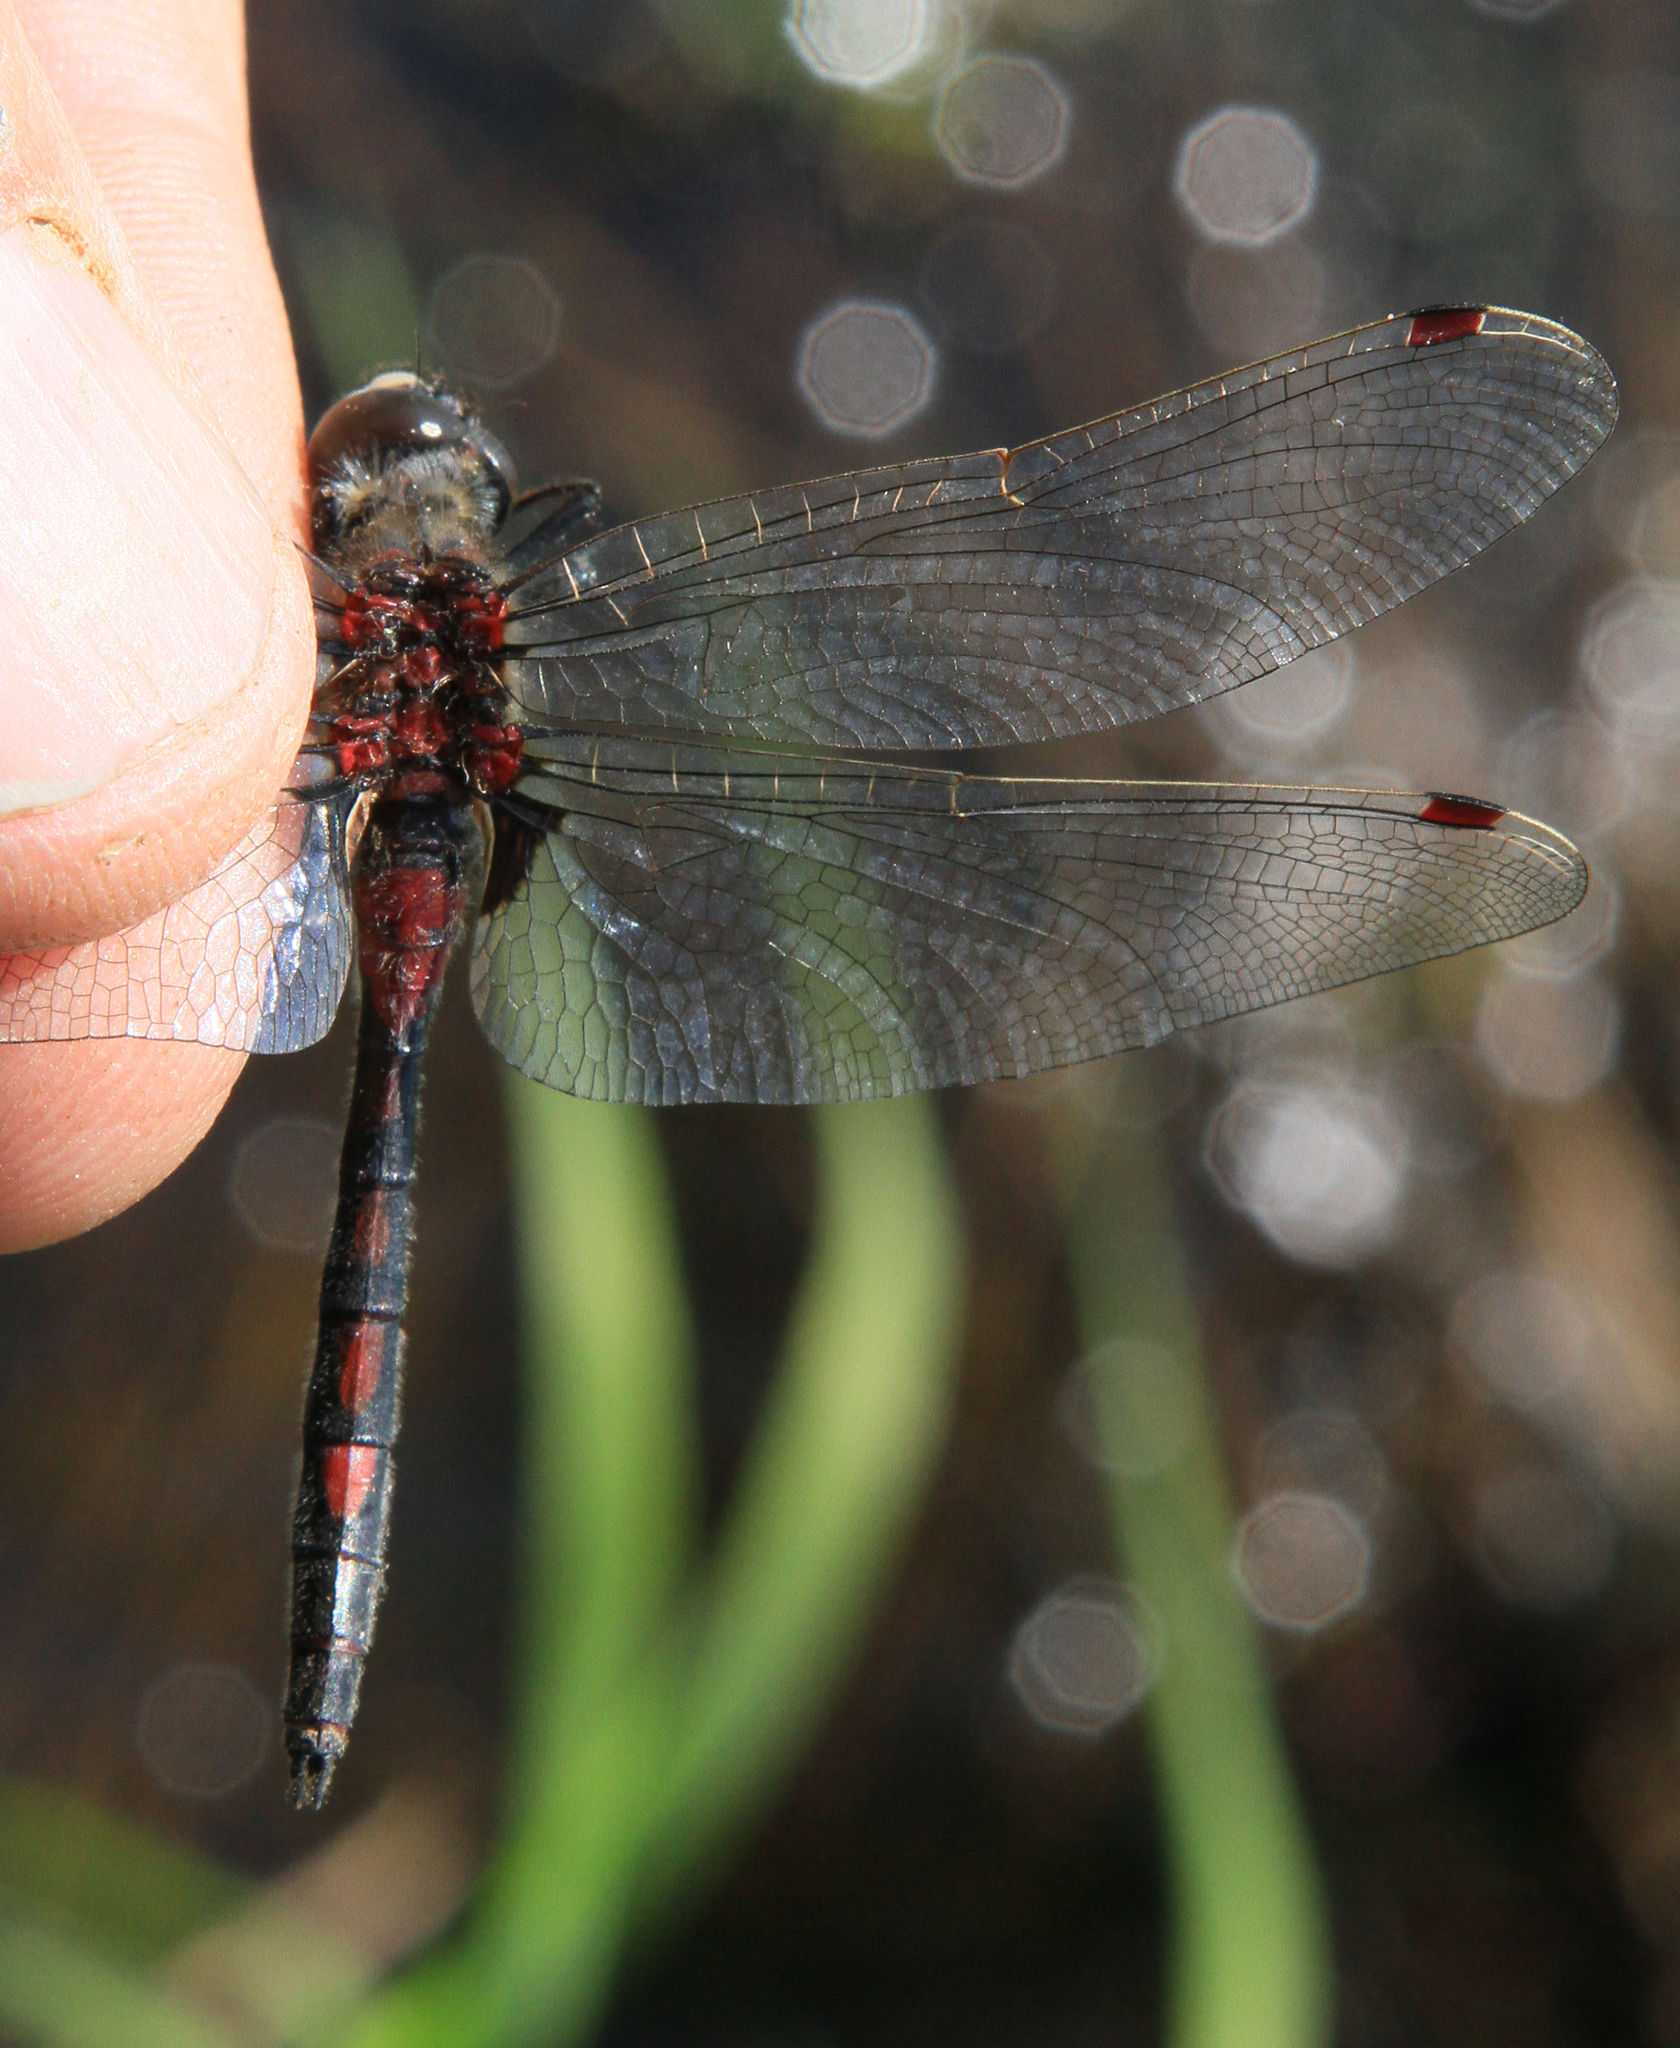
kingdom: Animalia
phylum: Arthropoda
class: Insecta
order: Odonata
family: Libellulidae
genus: Leucorrhinia
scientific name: Leucorrhinia rubicunda
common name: Ruby whiteface
